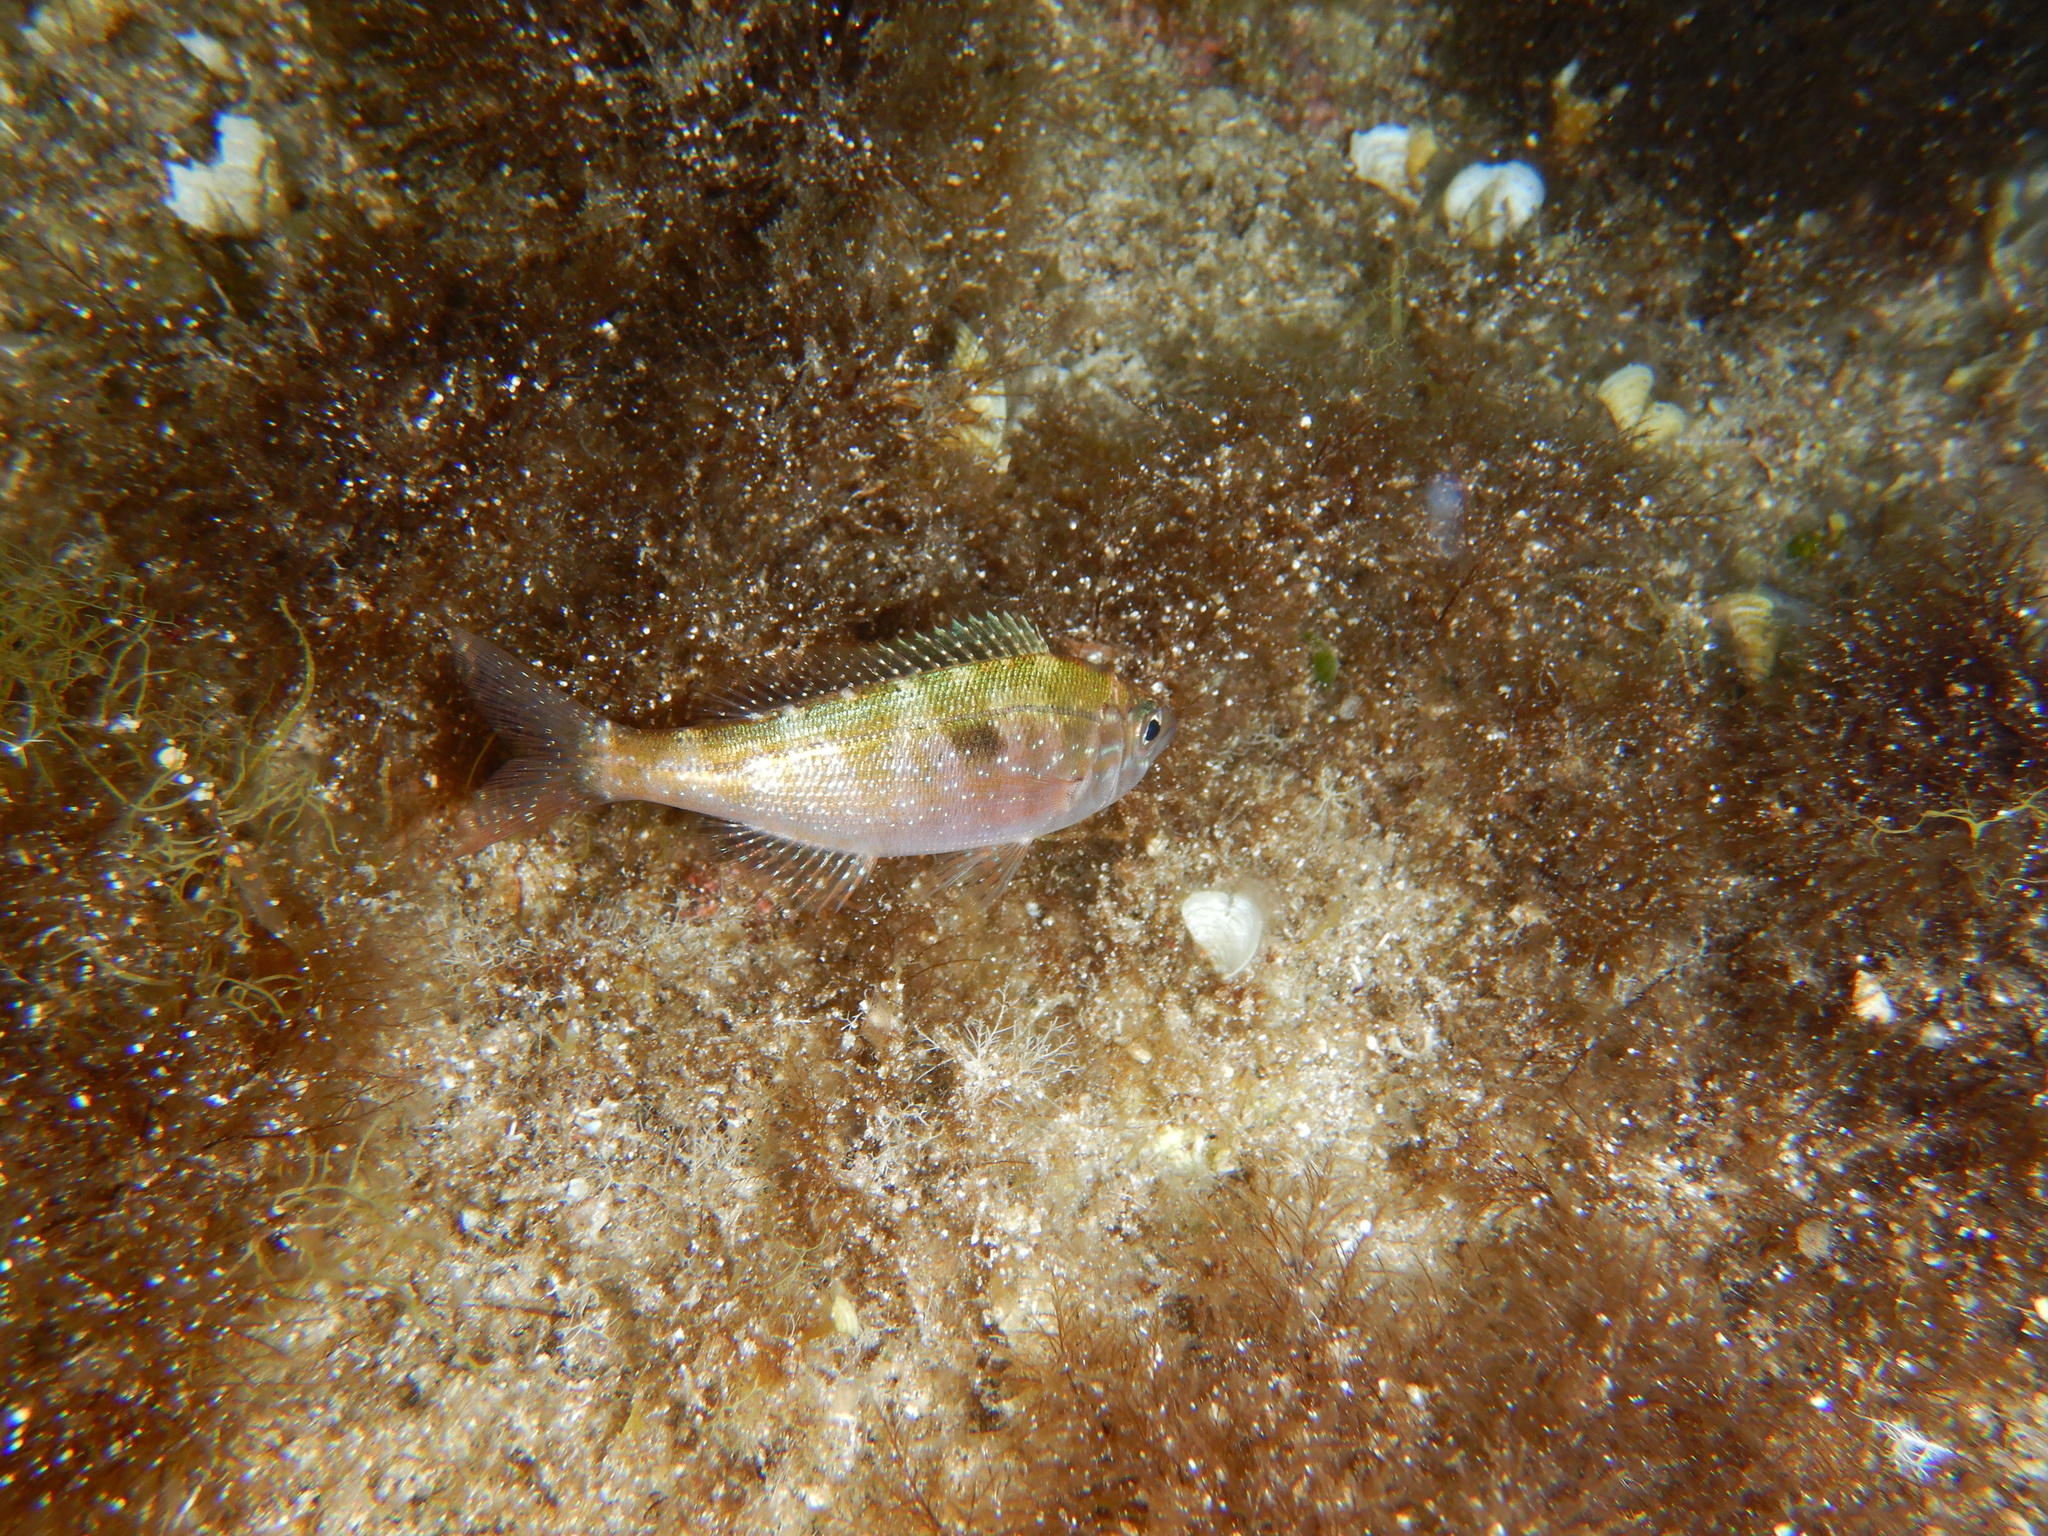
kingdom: Animalia
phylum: Chordata
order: Perciformes
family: Sparidae
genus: Spicara
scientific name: Spicara
